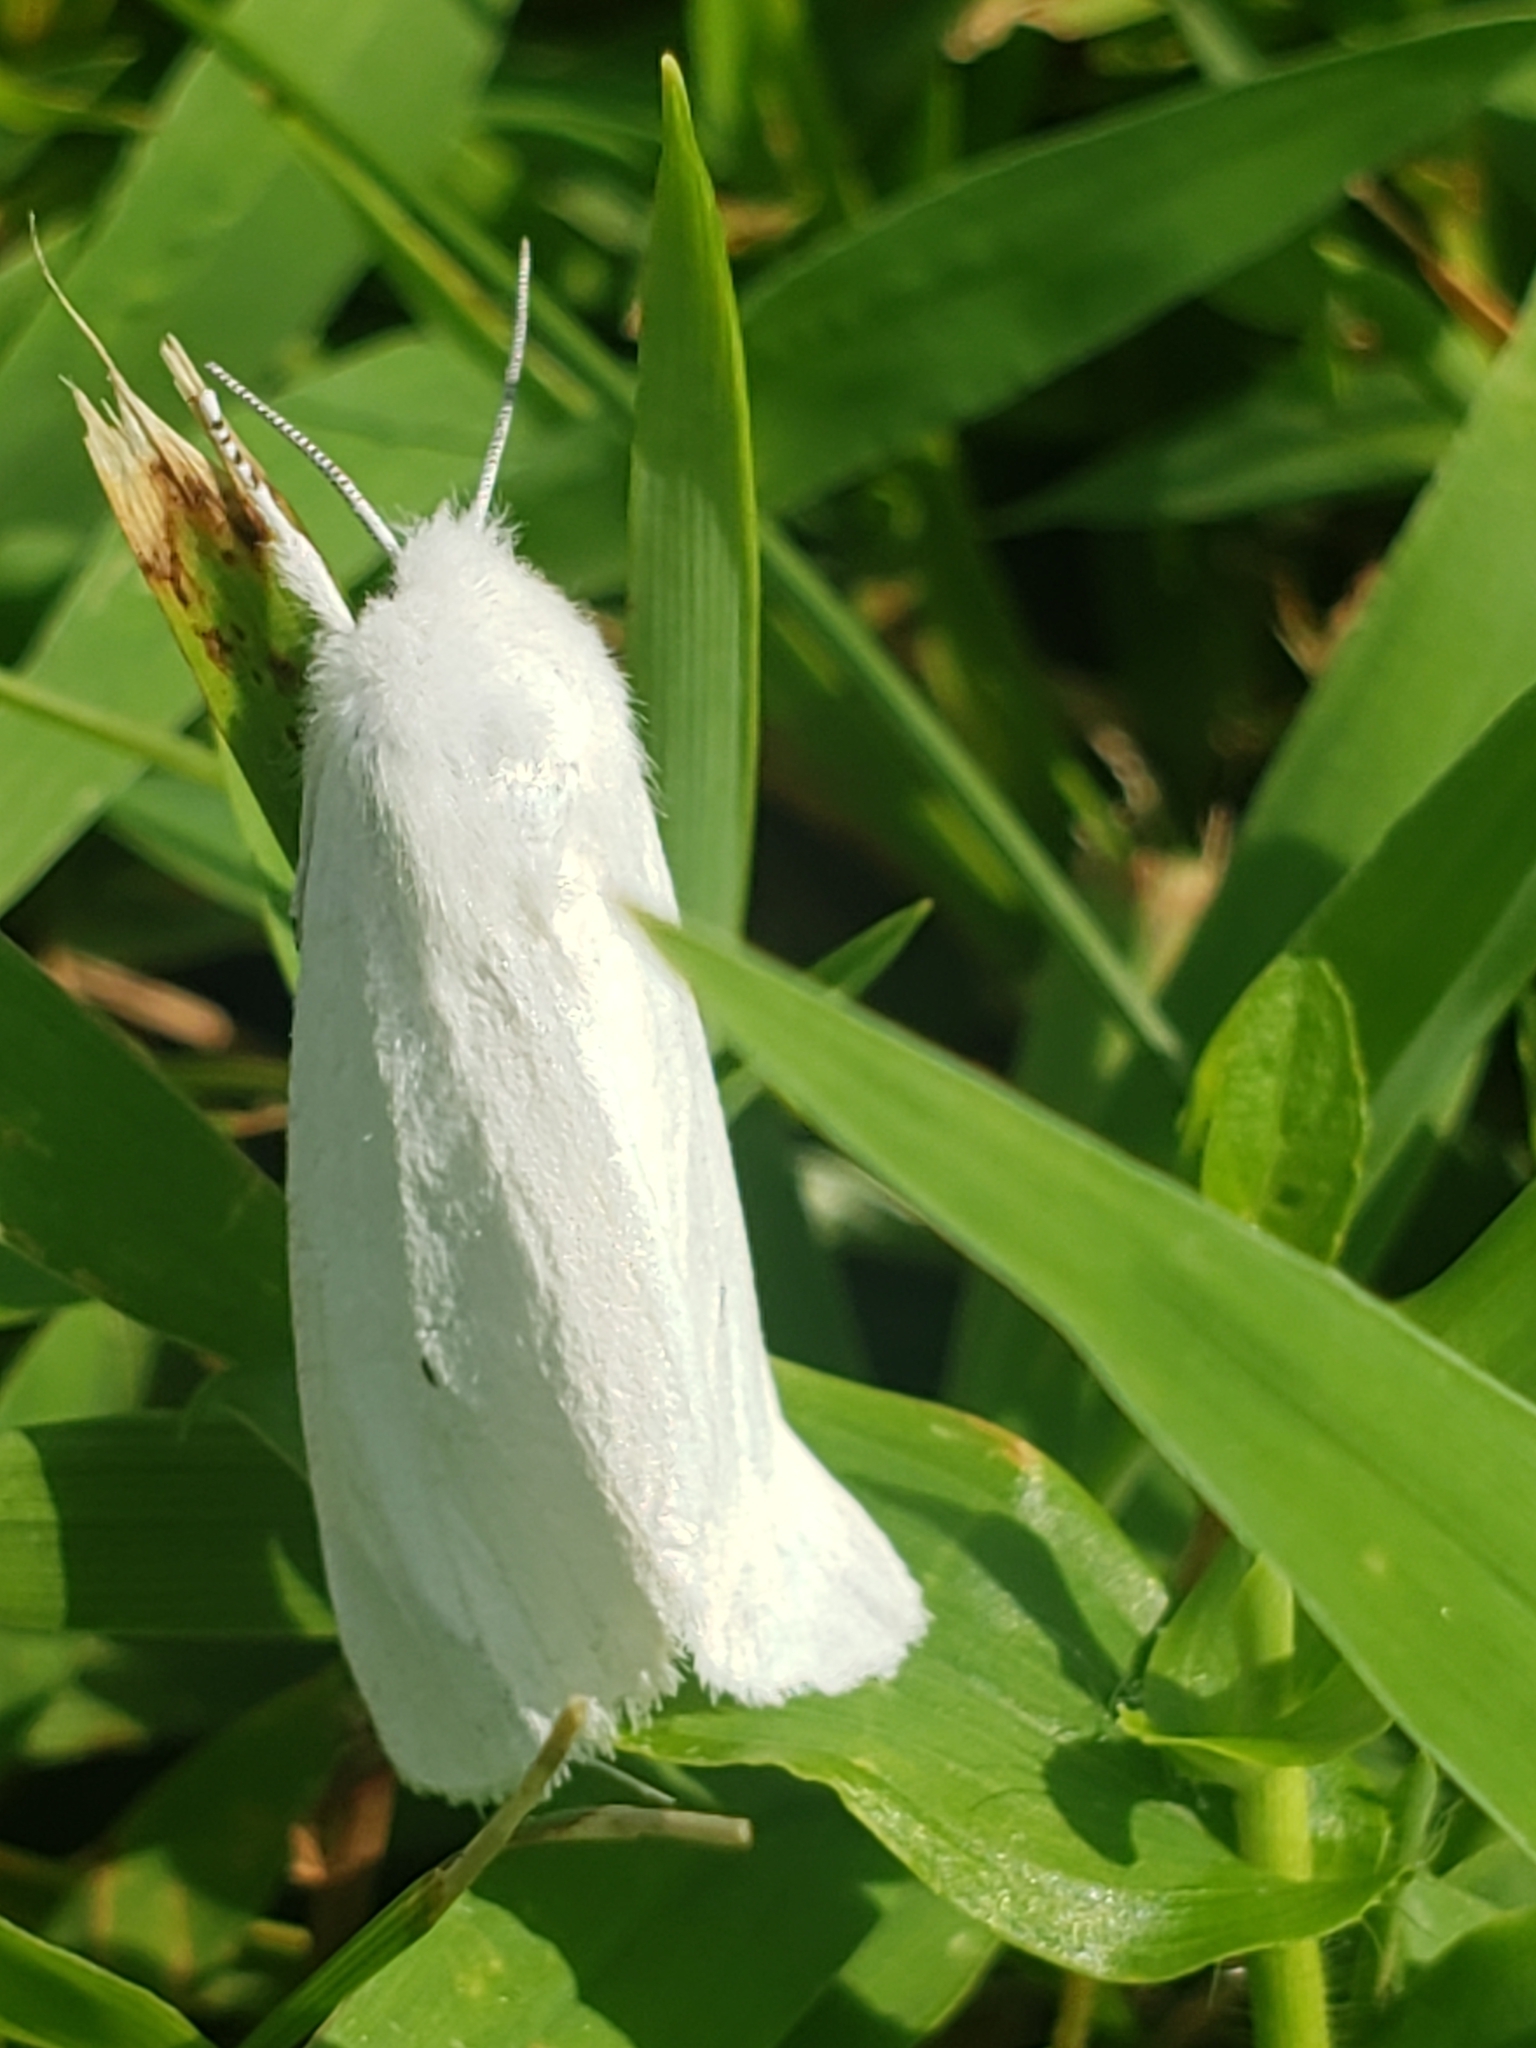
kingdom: Animalia
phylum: Arthropoda
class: Insecta
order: Lepidoptera
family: Erebidae
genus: Spilosoma
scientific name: Spilosoma virginica
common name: Virginia tiger moth
